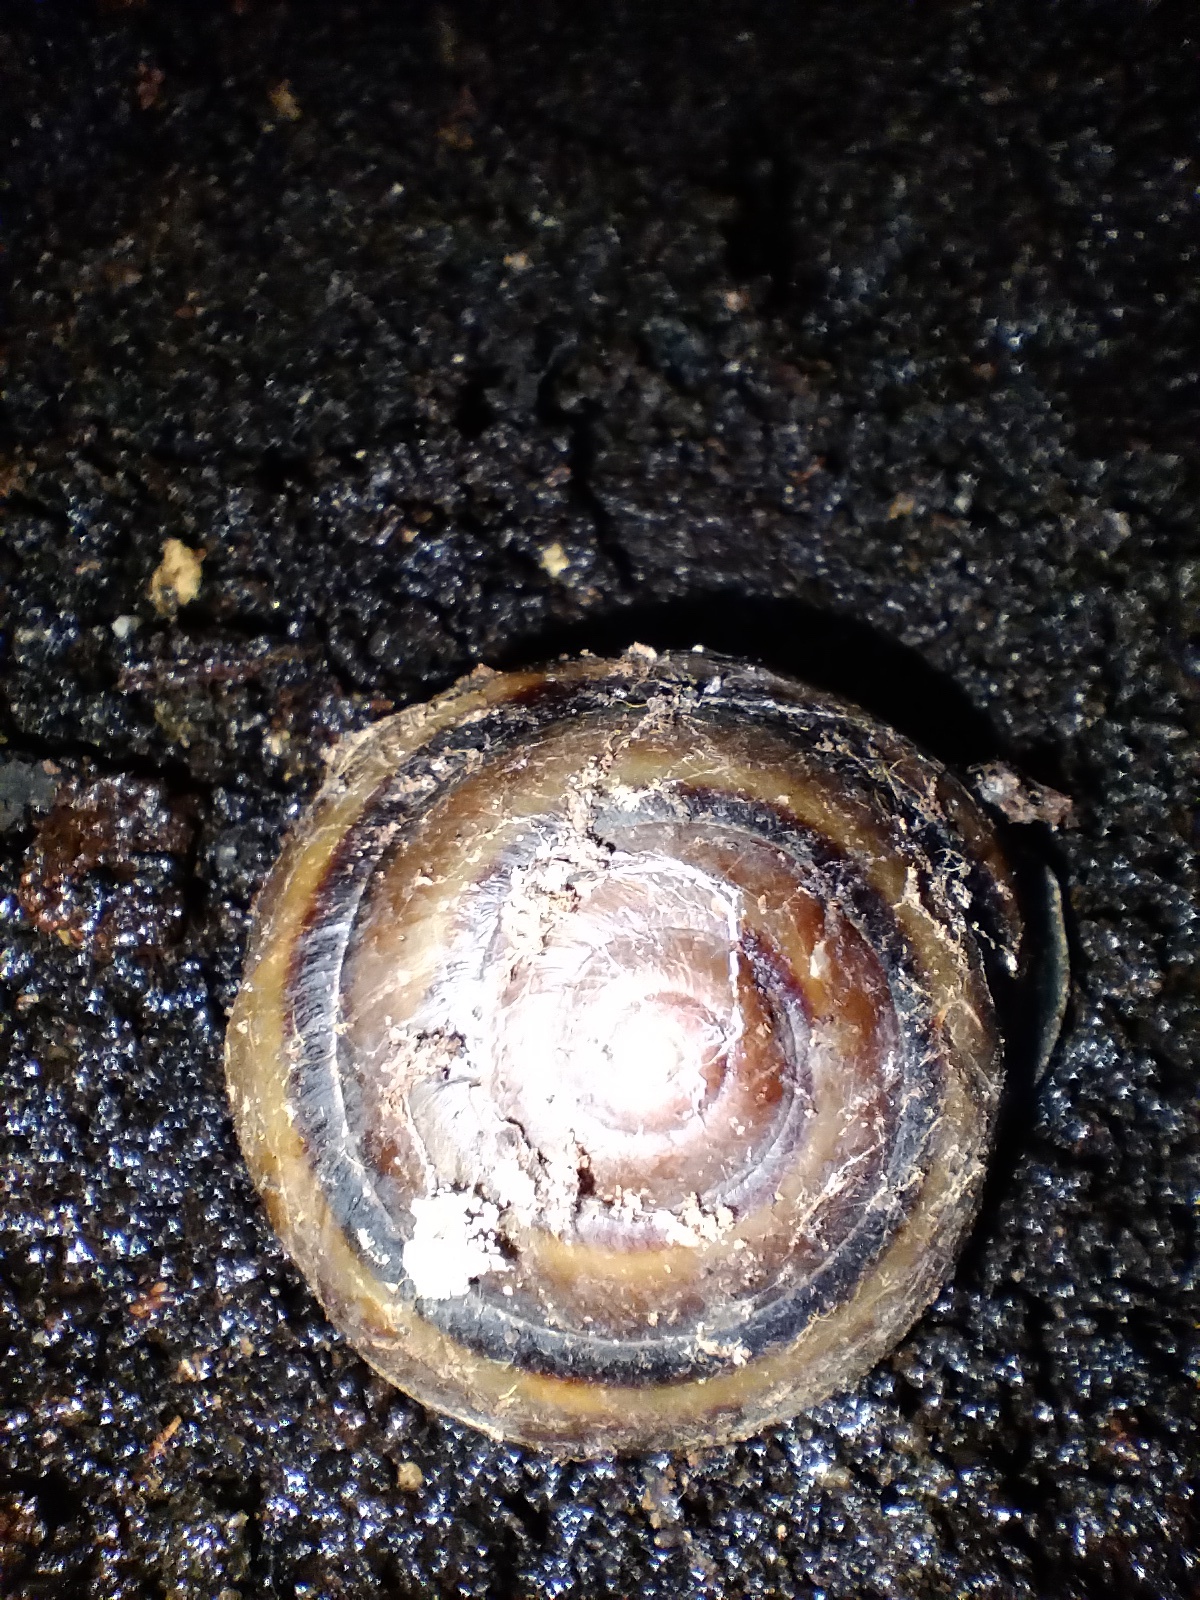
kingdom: Animalia
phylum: Mollusca
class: Gastropoda
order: Stylommatophora
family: Camaenidae
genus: Thersites
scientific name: Thersites novaehollandiae
